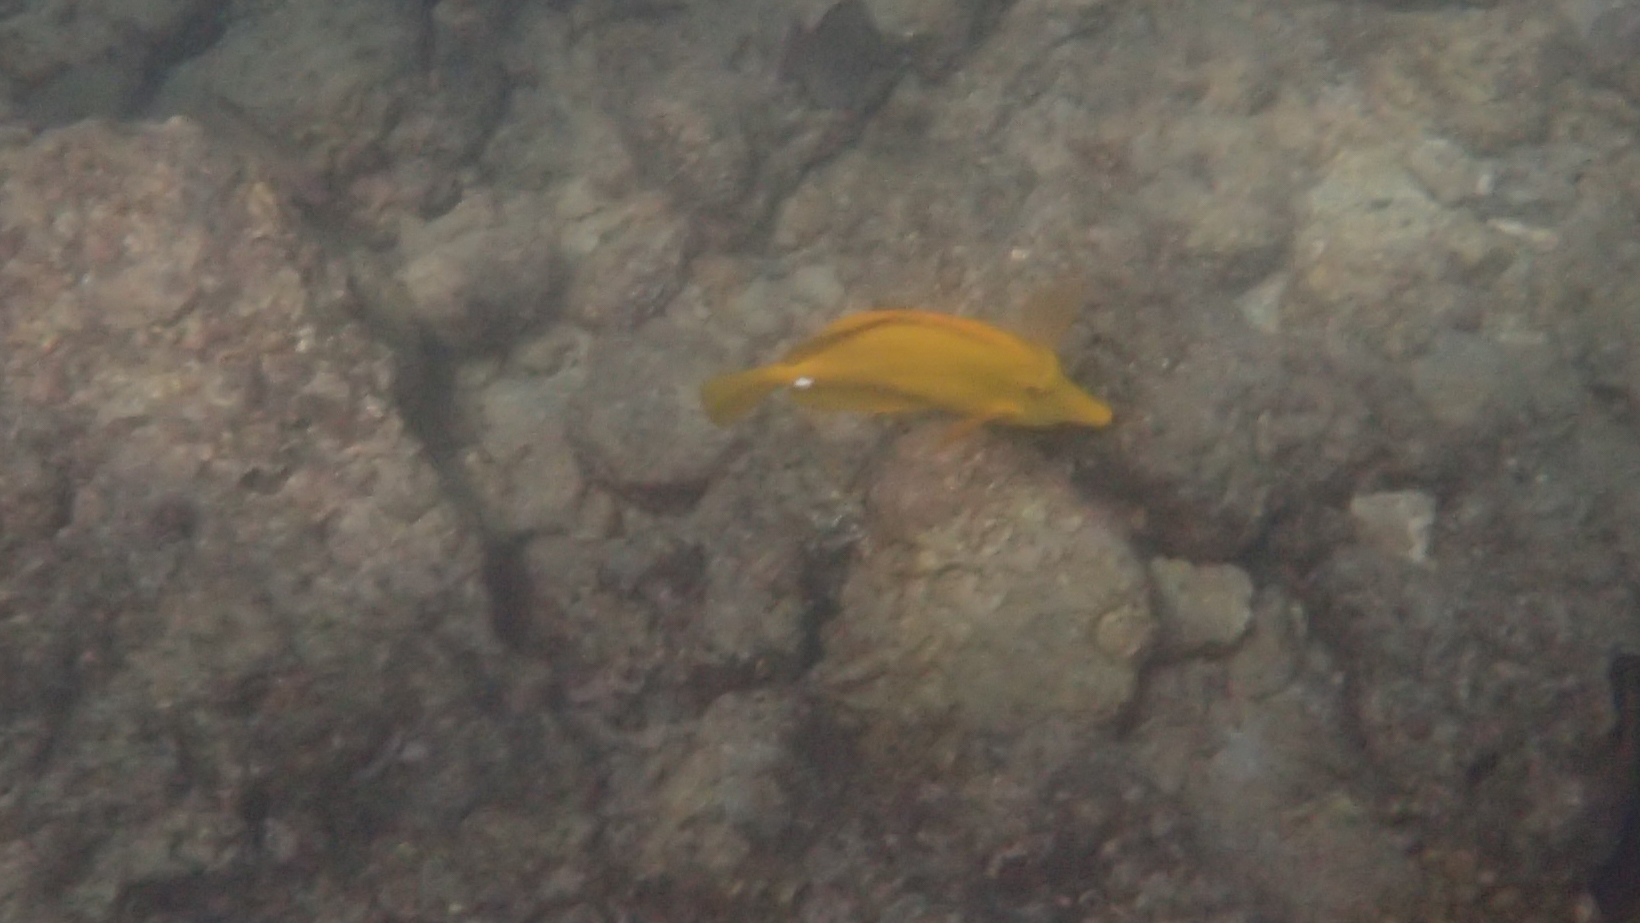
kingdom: Animalia
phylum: Chordata
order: Perciformes
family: Acanthuridae
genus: Zebrasoma
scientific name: Zebrasoma flavescens
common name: Yellow tang
